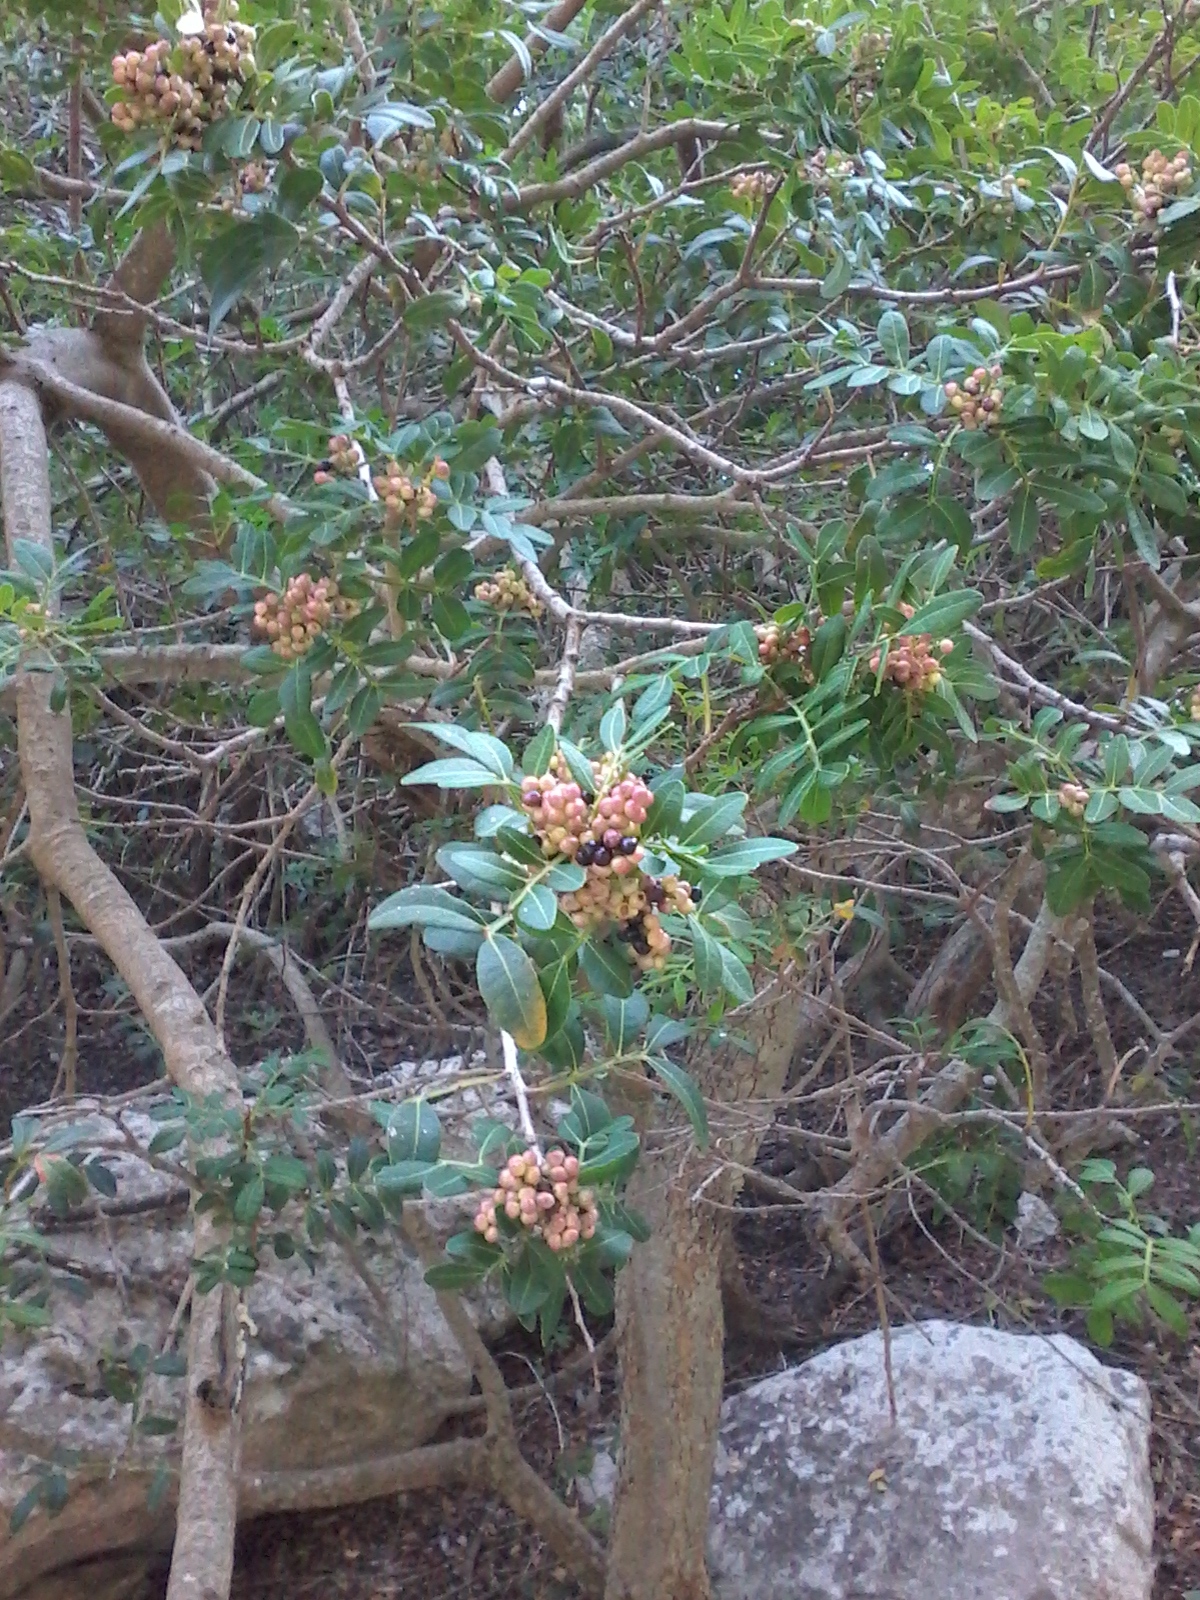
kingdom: Plantae
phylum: Tracheophyta
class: Magnoliopsida
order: Sapindales
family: Anacardiaceae
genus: Pistacia
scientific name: Pistacia lentiscus
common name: Lentisk
